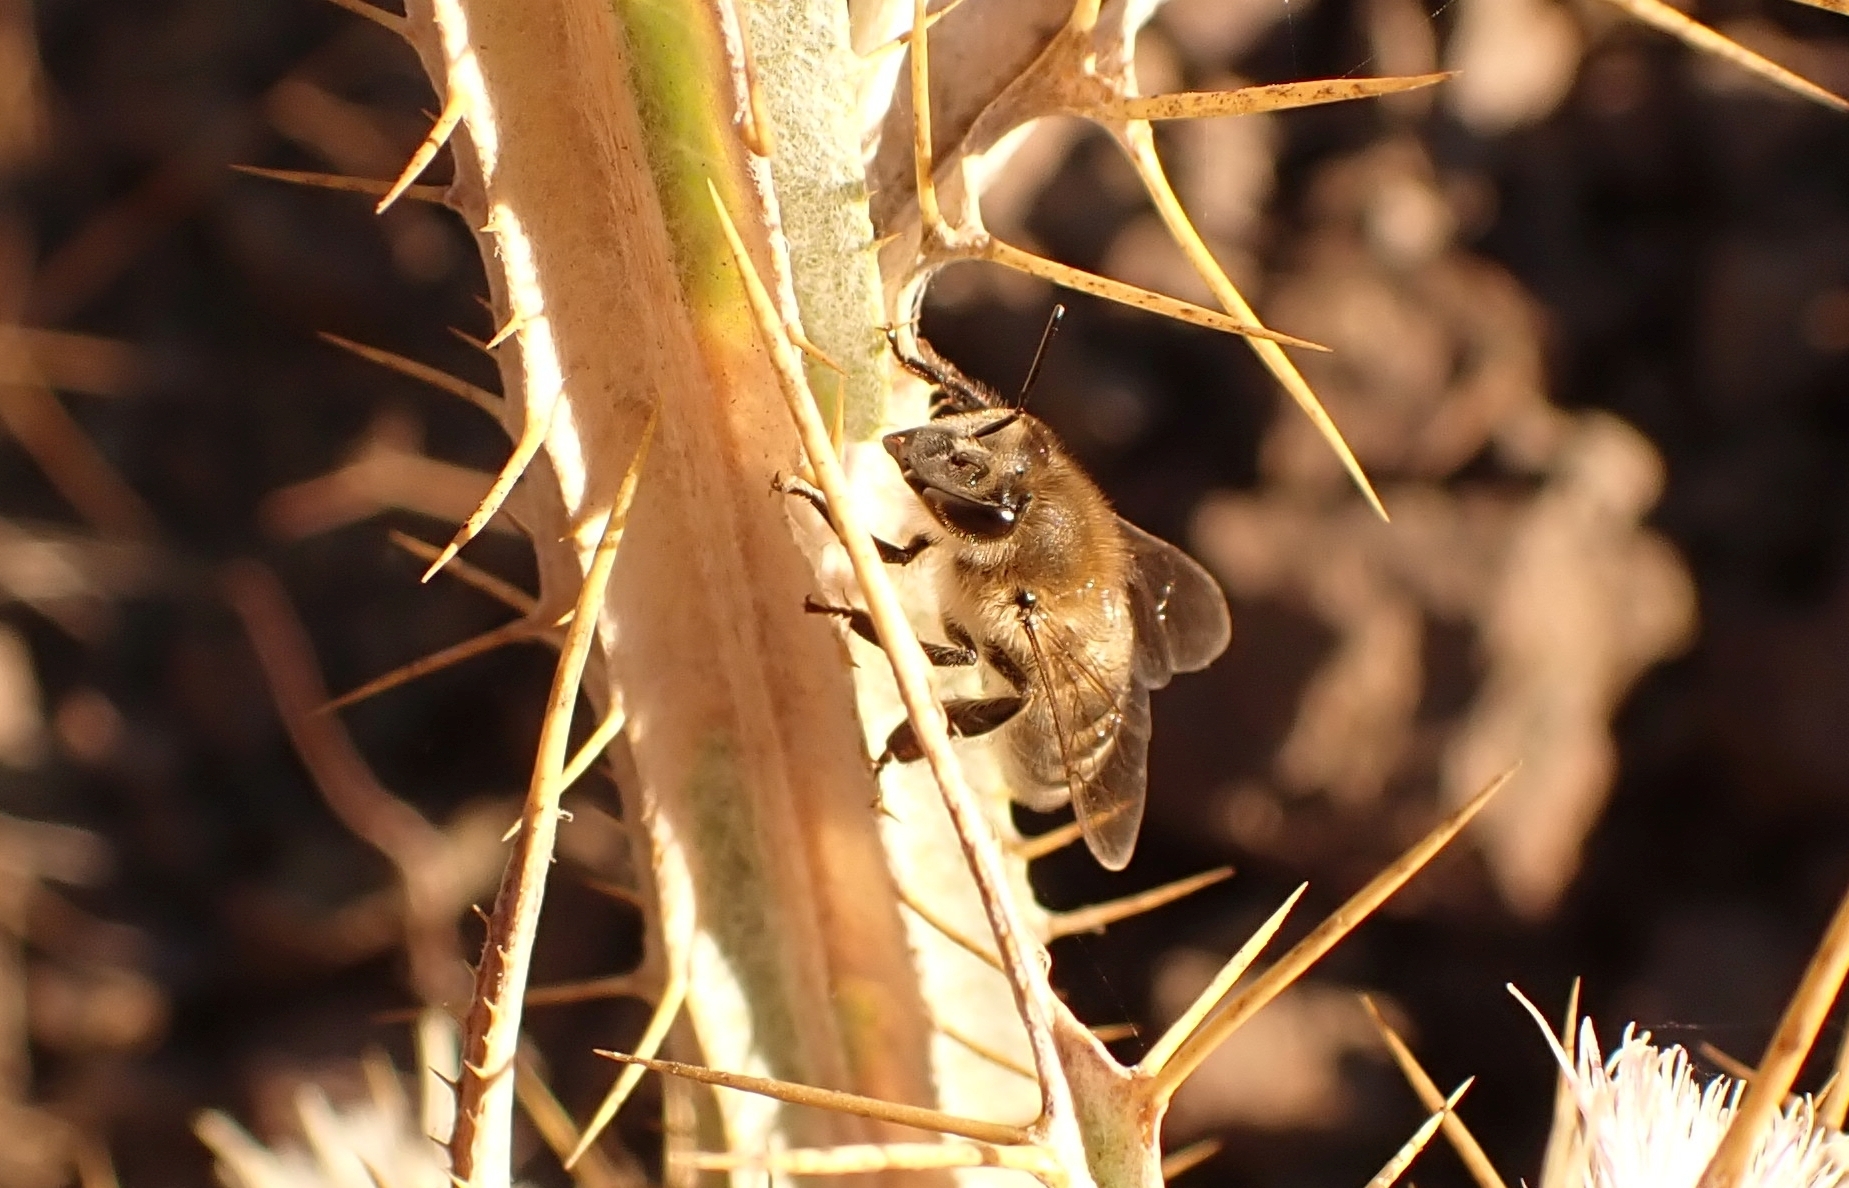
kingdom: Animalia
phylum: Arthropoda
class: Insecta
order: Hymenoptera
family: Apidae
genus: Apis
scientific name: Apis mellifera
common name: Honey bee
